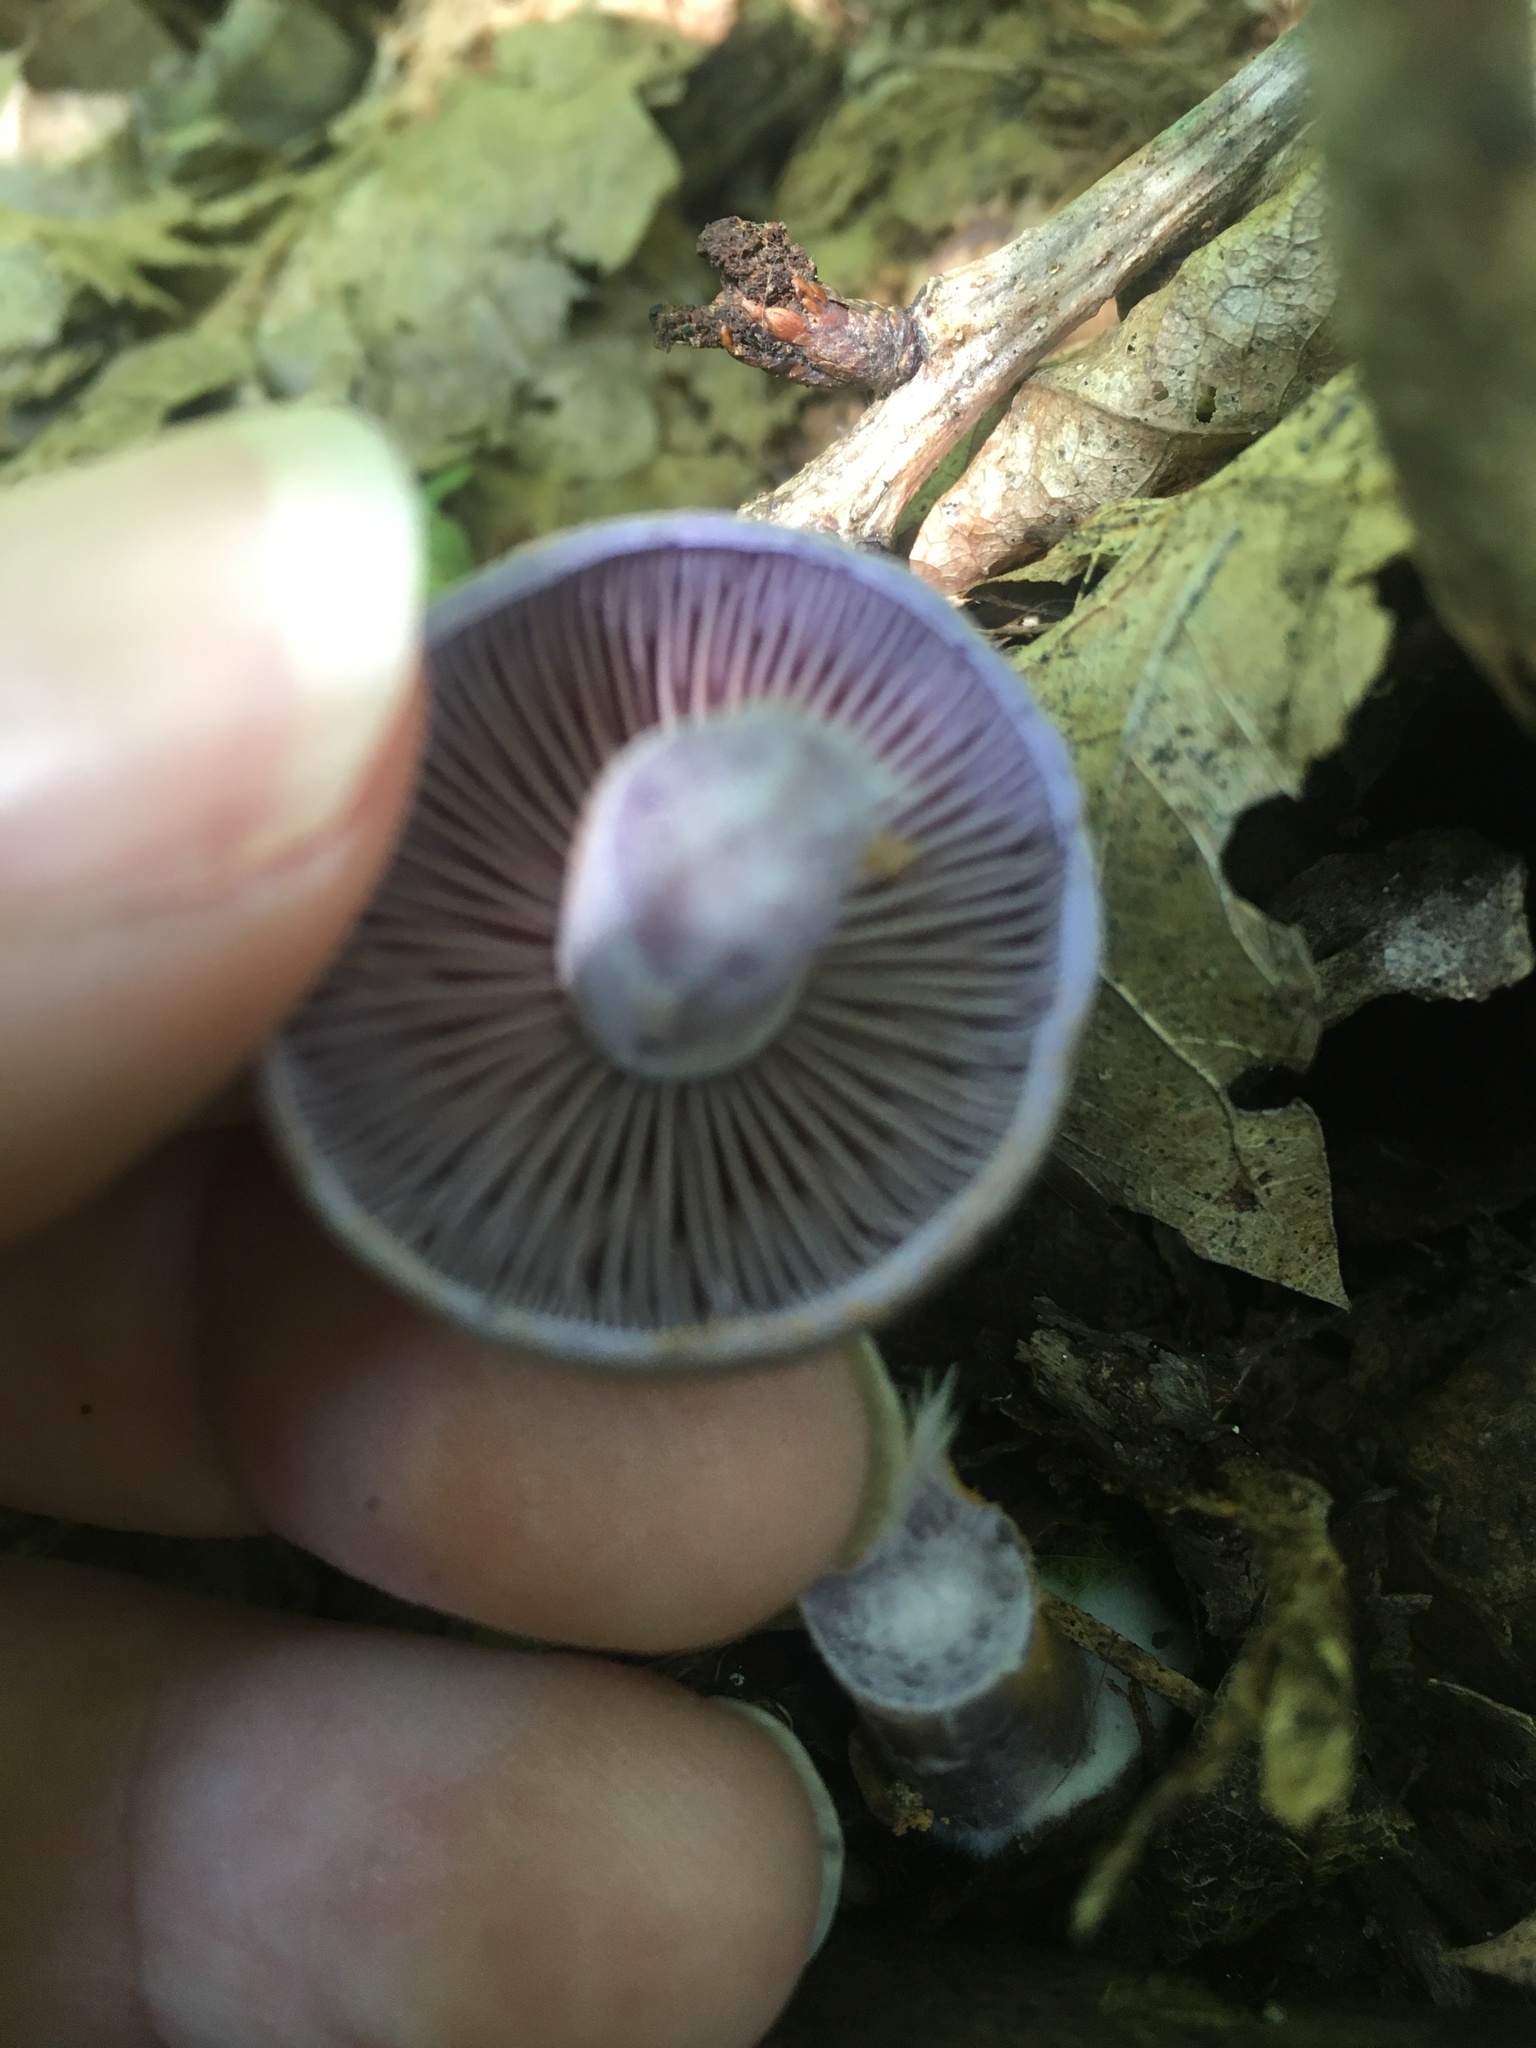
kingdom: Fungi
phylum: Basidiomycota
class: Agaricomycetes
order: Agaricales
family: Cortinariaceae
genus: Cortinarius
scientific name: Cortinarius iodes
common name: Viscid violet cort
